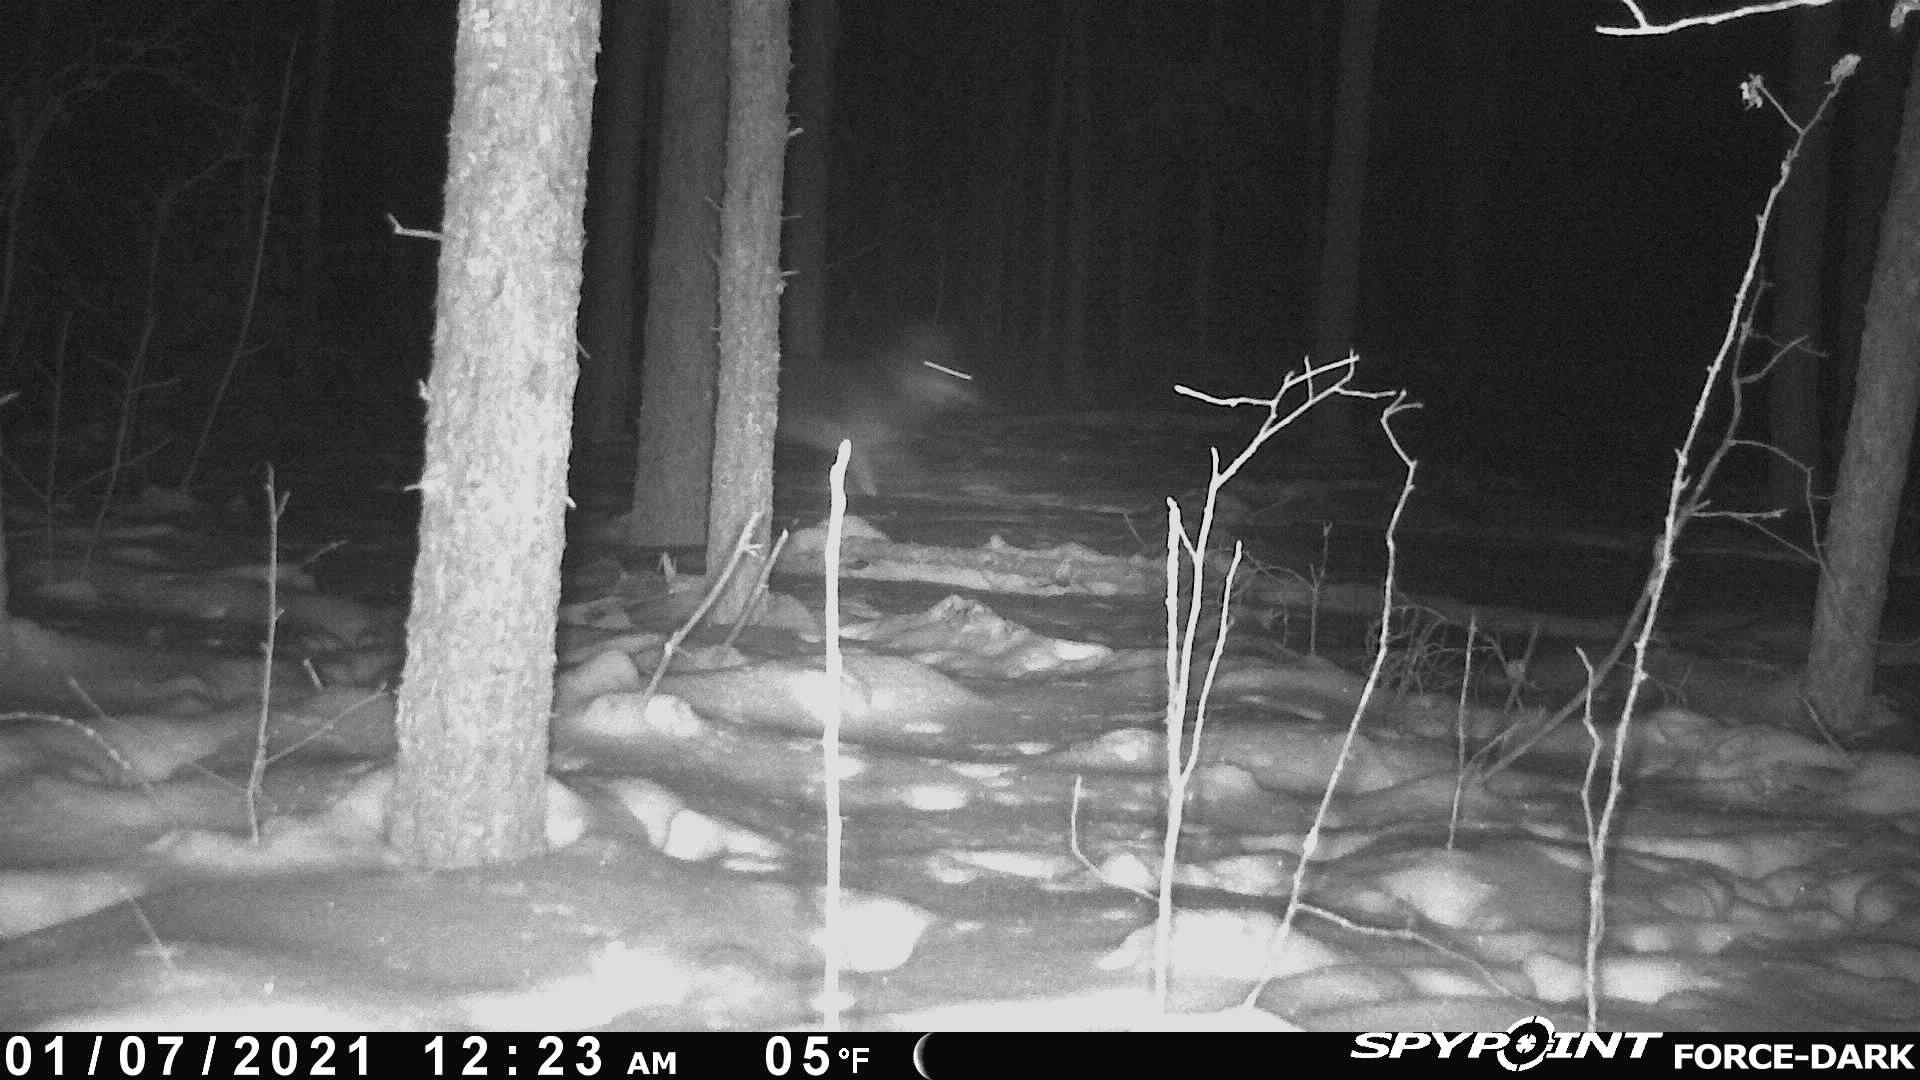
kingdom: Animalia
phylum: Chordata
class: Mammalia
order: Carnivora
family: Canidae
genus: Canis
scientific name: Canis lupus
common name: Gray wolf
